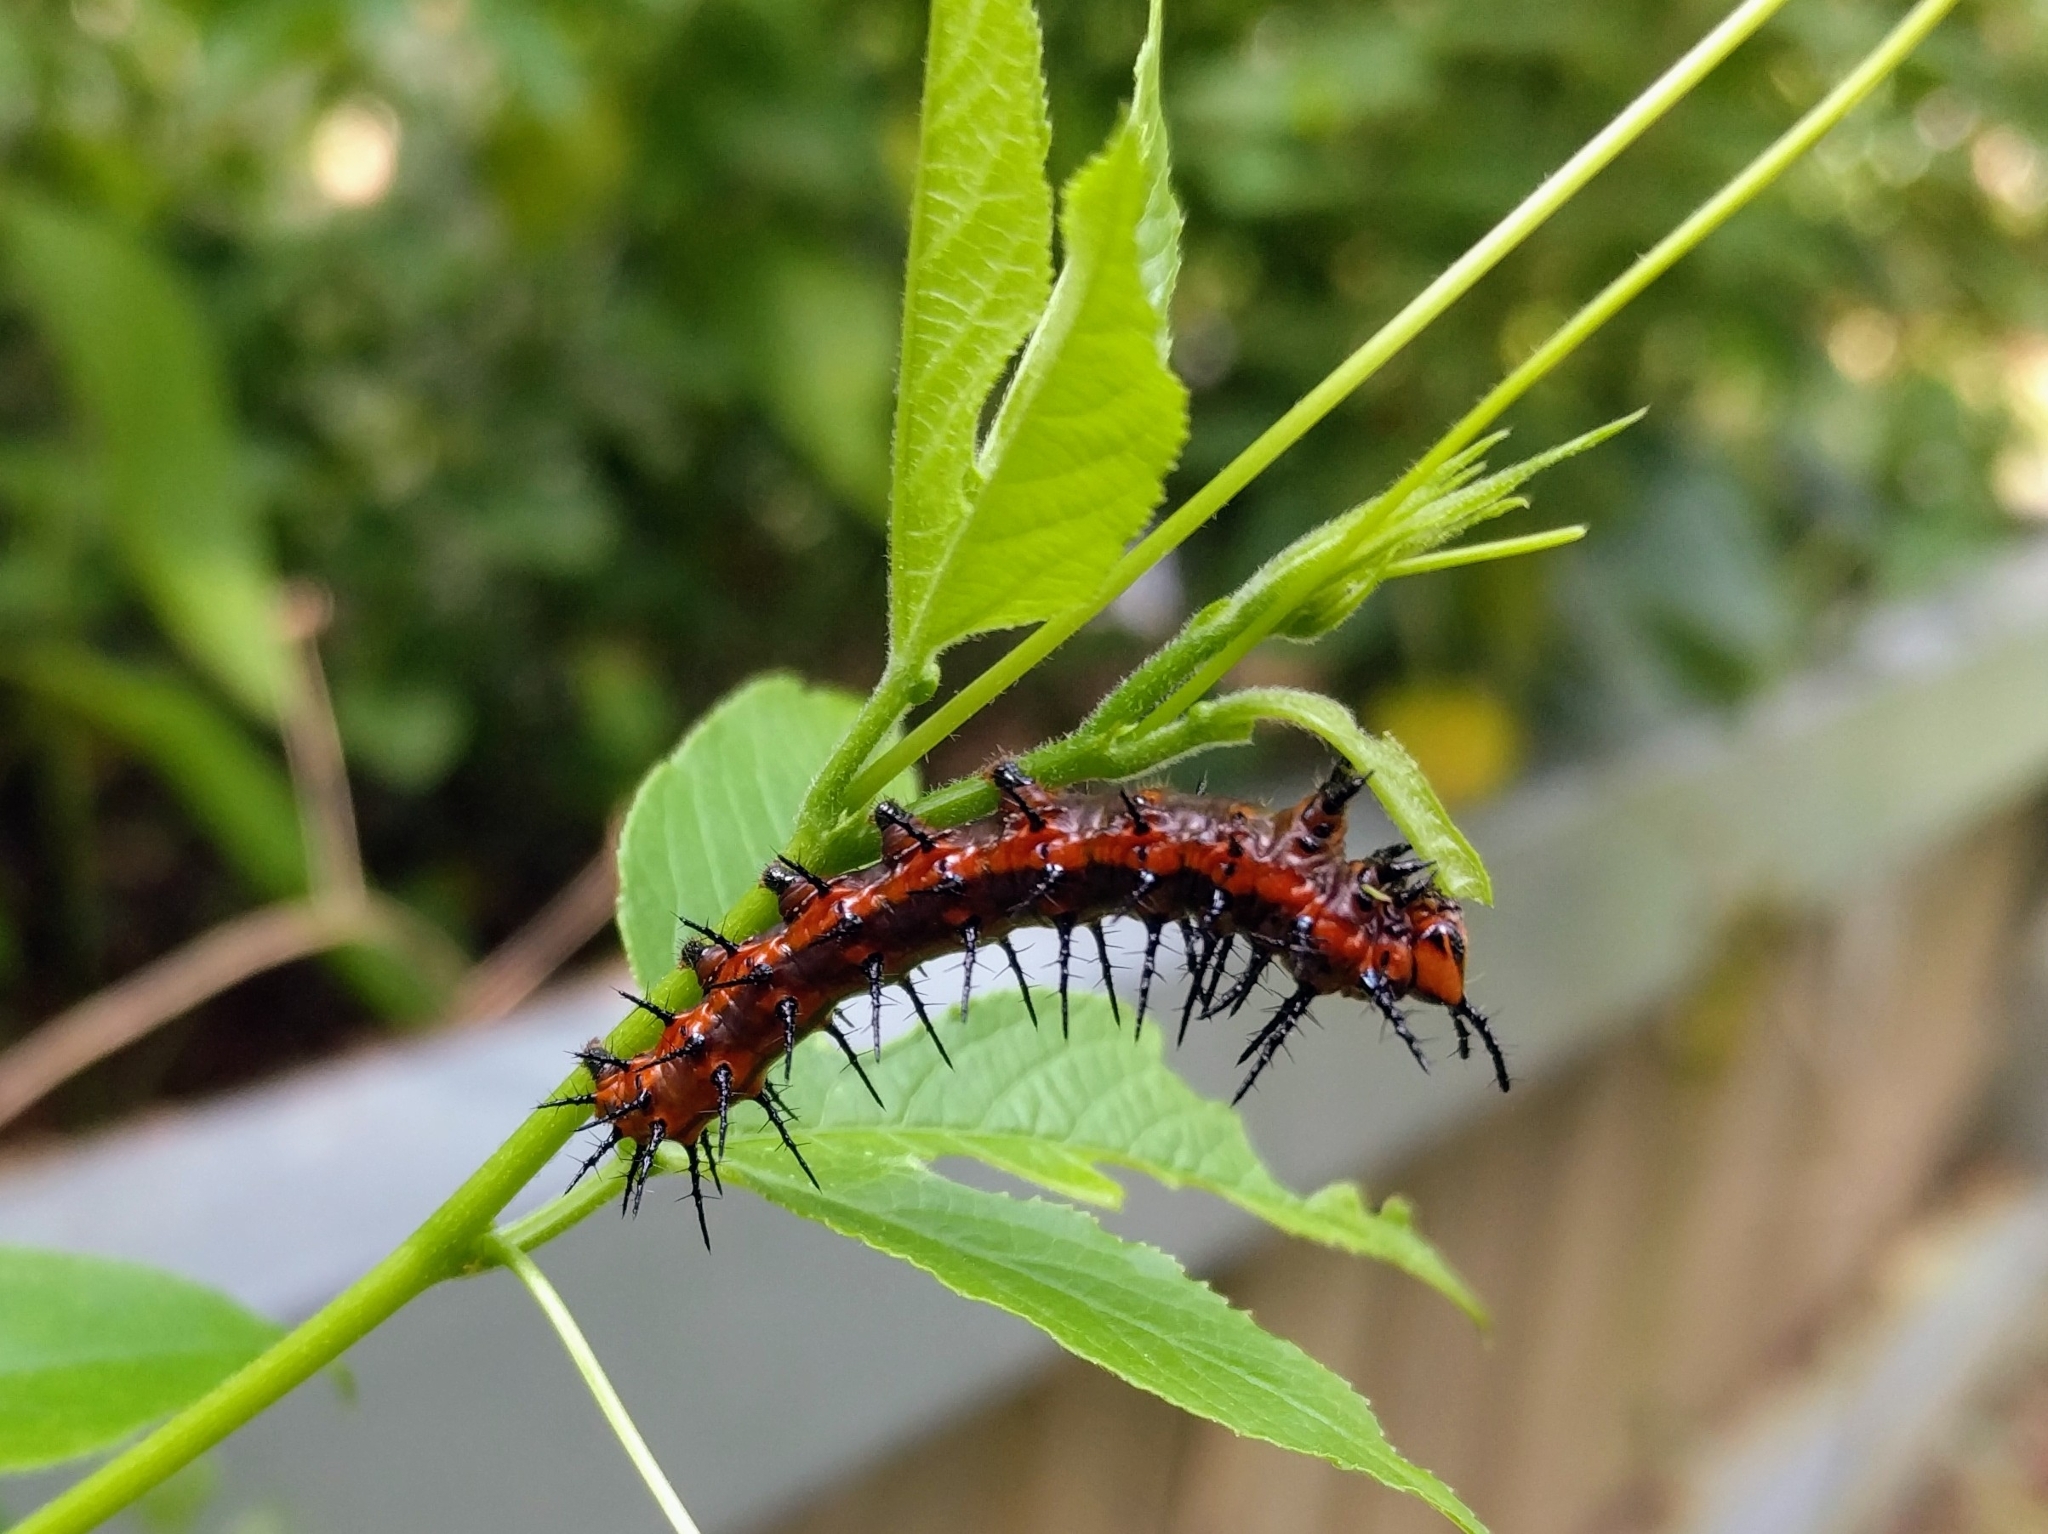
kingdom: Animalia
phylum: Arthropoda
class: Insecta
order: Lepidoptera
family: Nymphalidae
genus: Dione
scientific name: Dione vanillae
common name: Gulf fritillary
